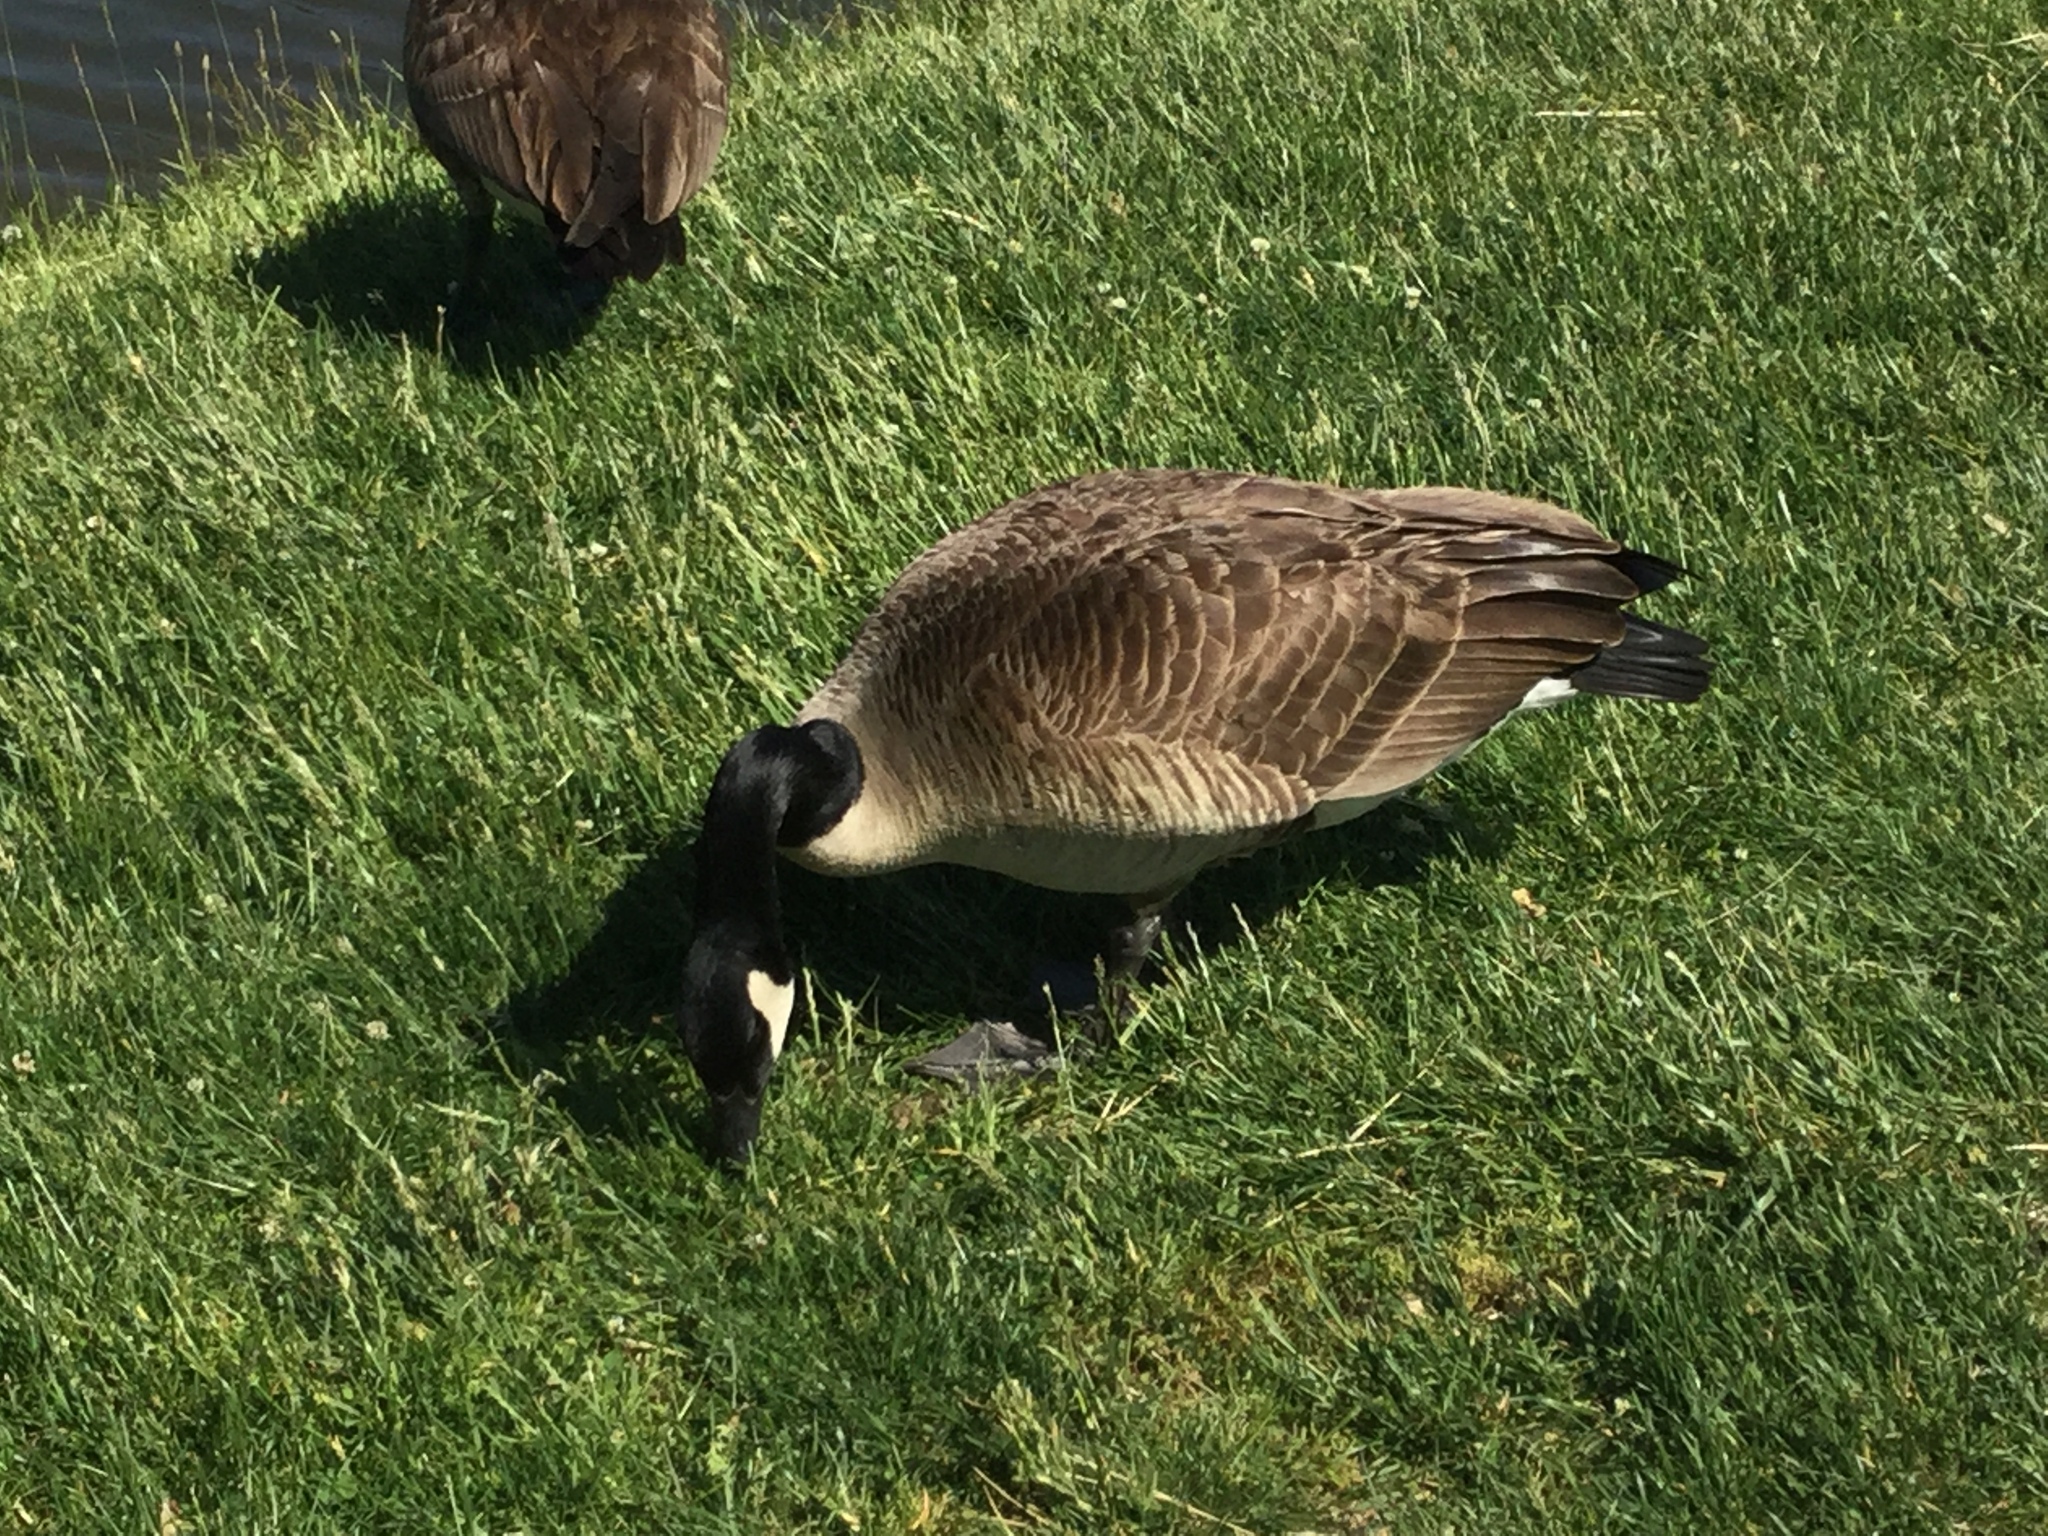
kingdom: Animalia
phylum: Chordata
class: Aves
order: Anseriformes
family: Anatidae
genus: Branta
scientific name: Branta canadensis
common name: Canada goose
